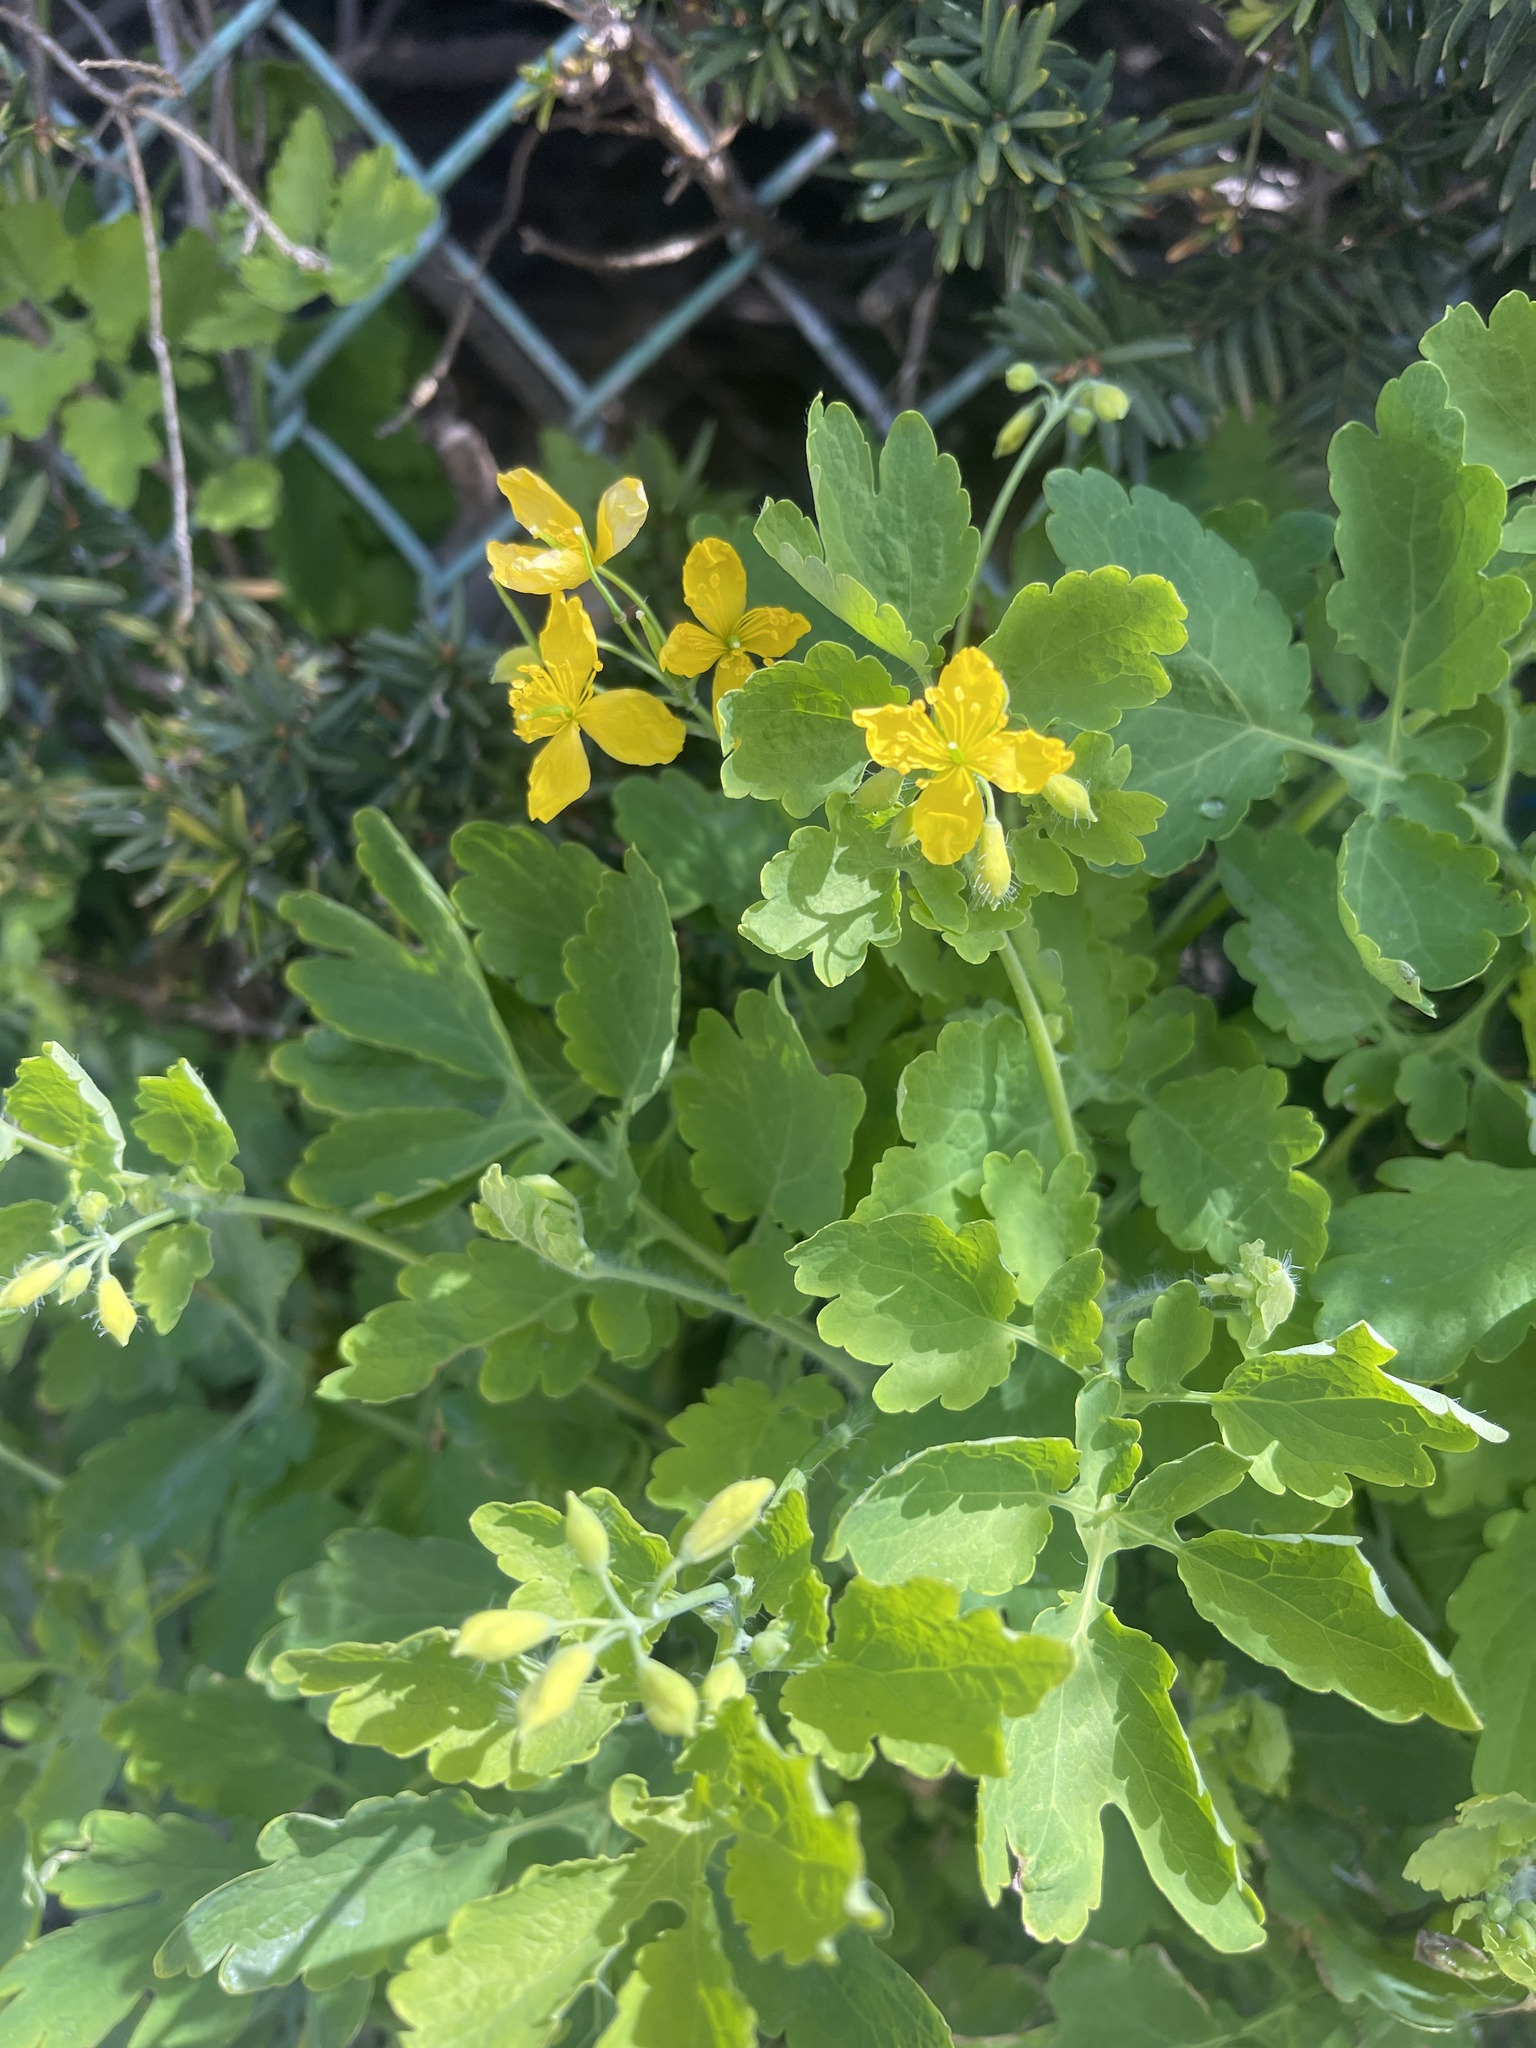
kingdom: Plantae
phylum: Tracheophyta
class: Magnoliopsida
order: Ranunculales
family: Papaveraceae
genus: Chelidonium
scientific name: Chelidonium majus
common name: Greater celandine
